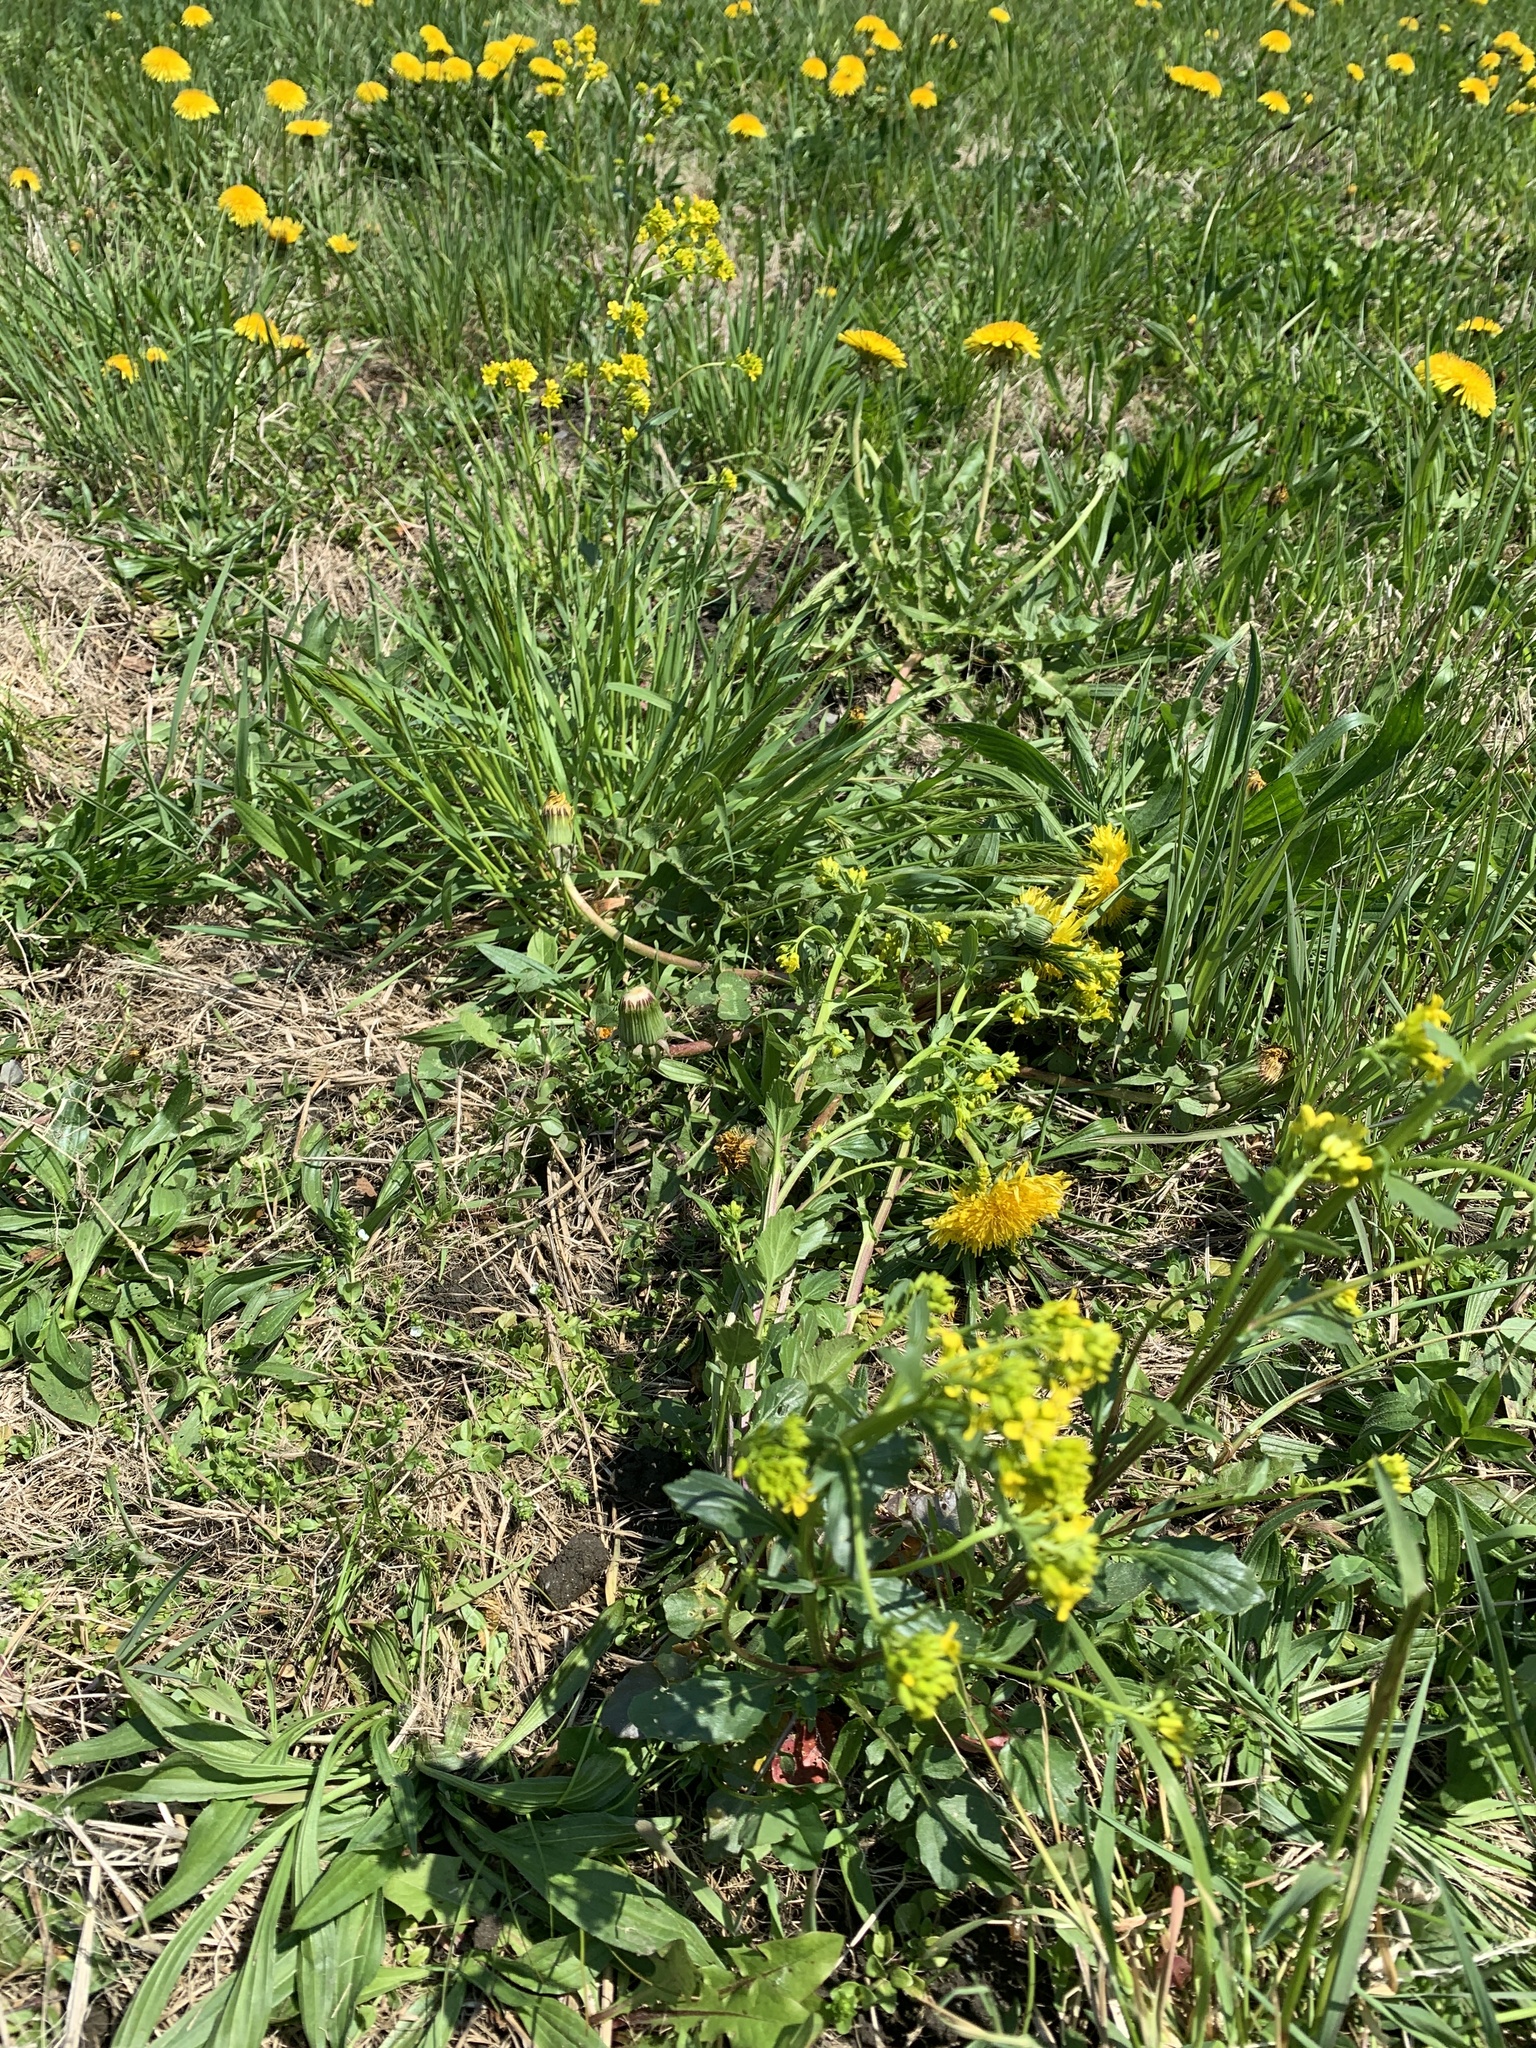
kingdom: Plantae
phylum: Tracheophyta
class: Magnoliopsida
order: Brassicales
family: Brassicaceae
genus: Barbarea
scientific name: Barbarea vulgaris
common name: Cressy-greens
